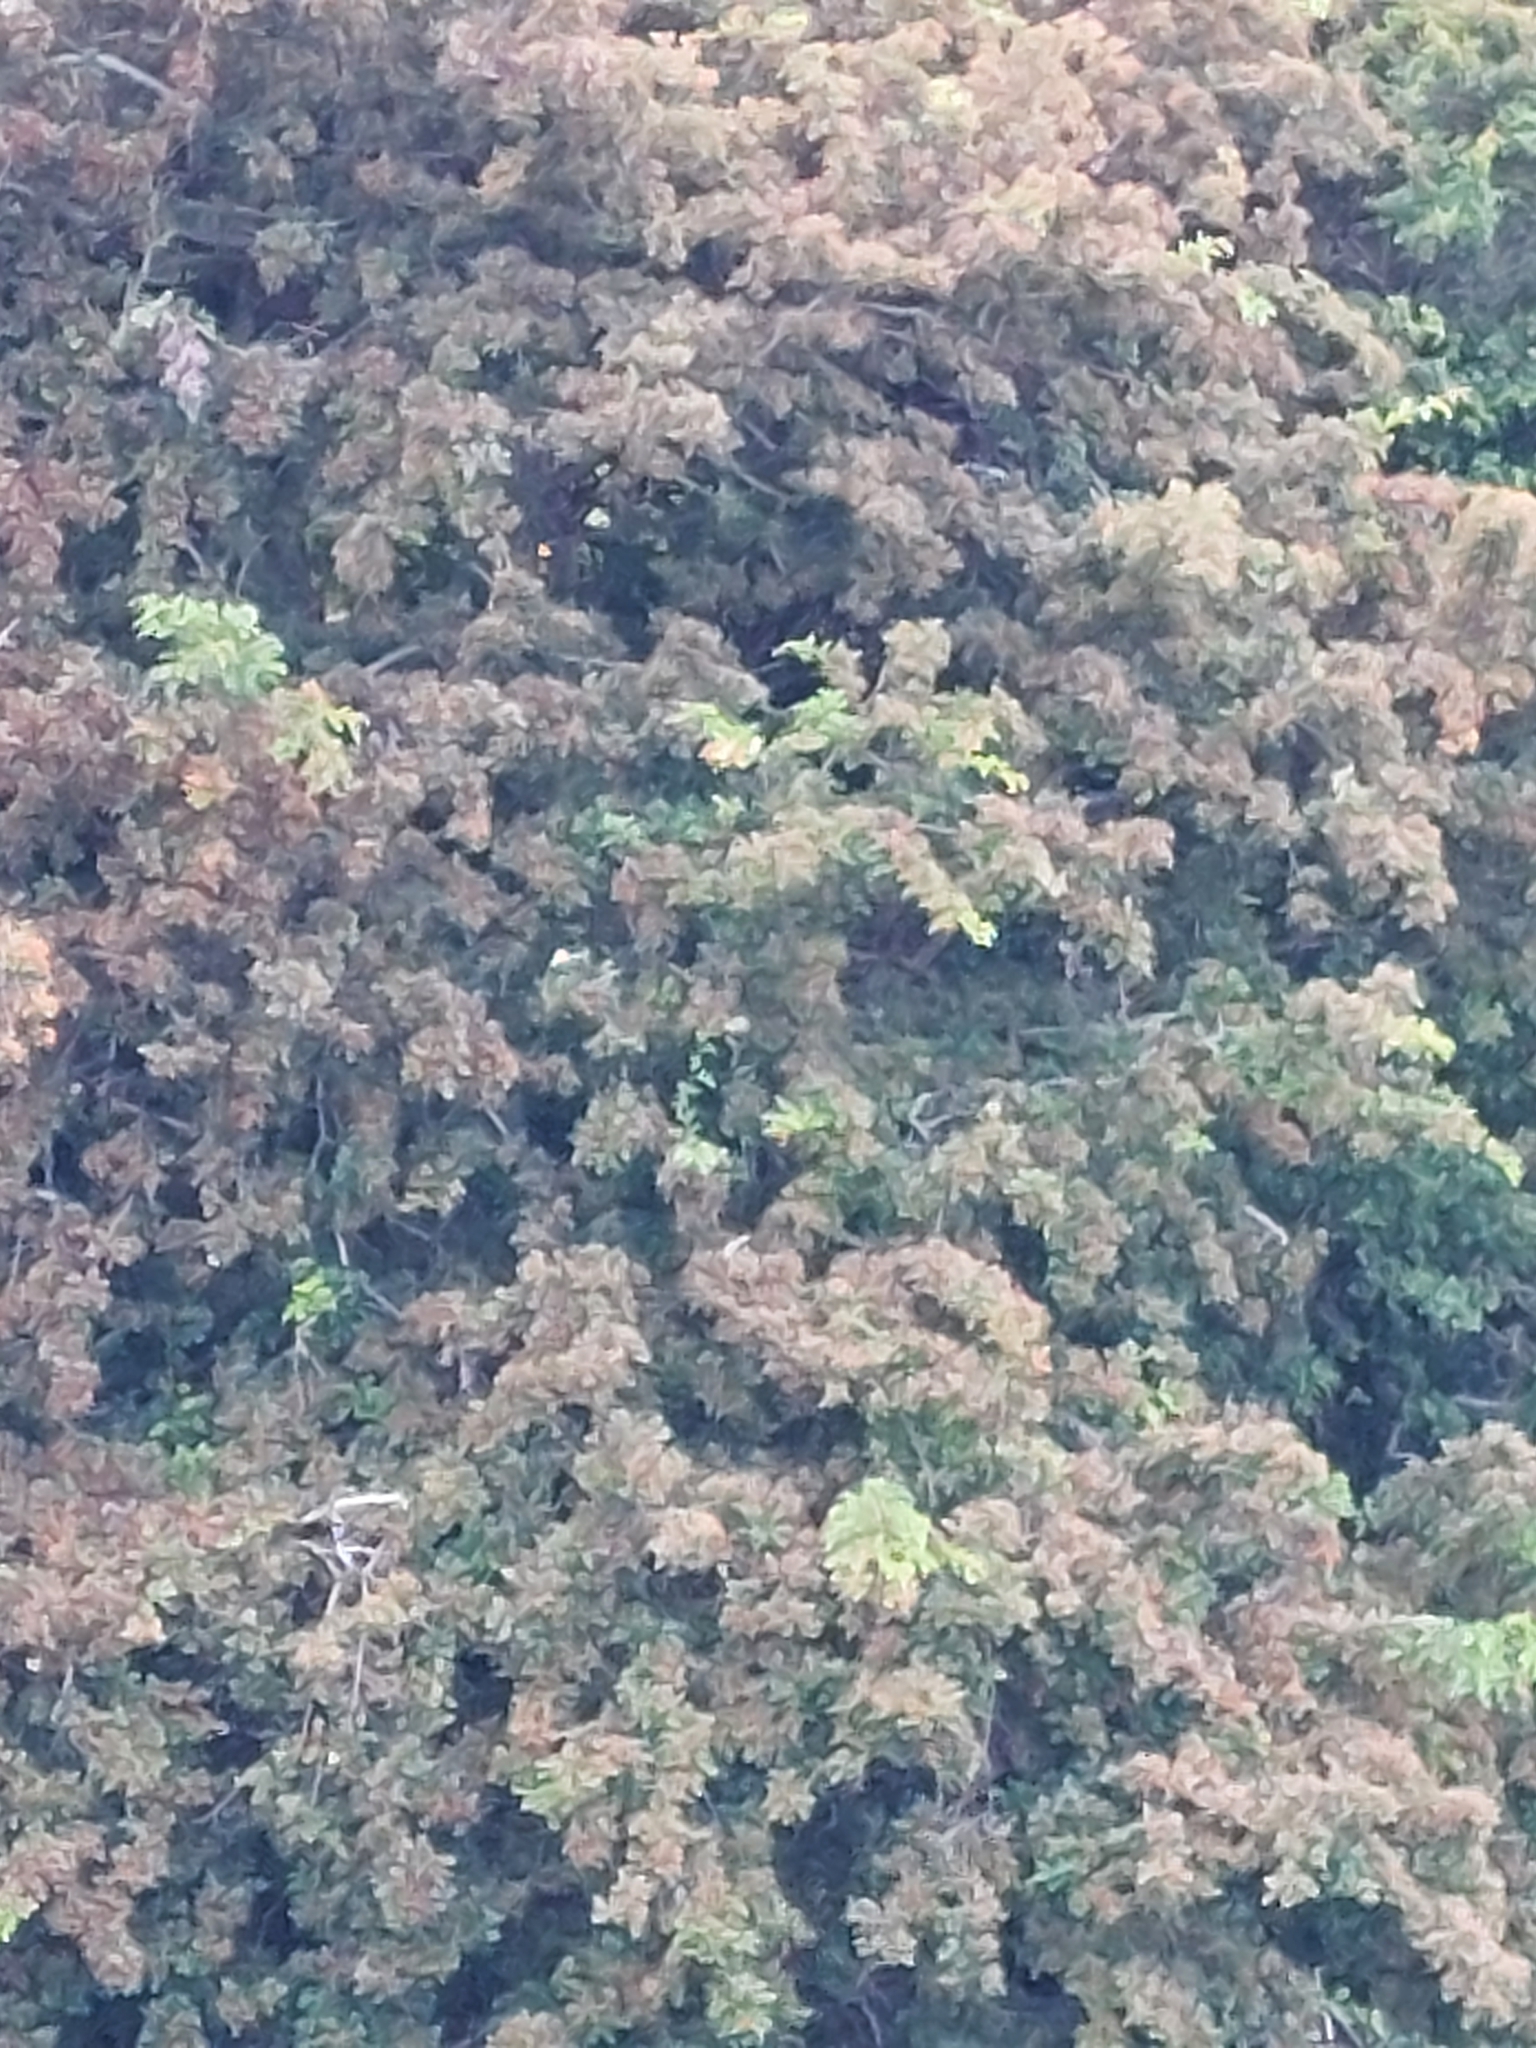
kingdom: Plantae
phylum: Tracheophyta
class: Magnoliopsida
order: Rosales
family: Rosaceae
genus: Crataegus
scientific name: Crataegus monogyna
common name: Hawthorn
